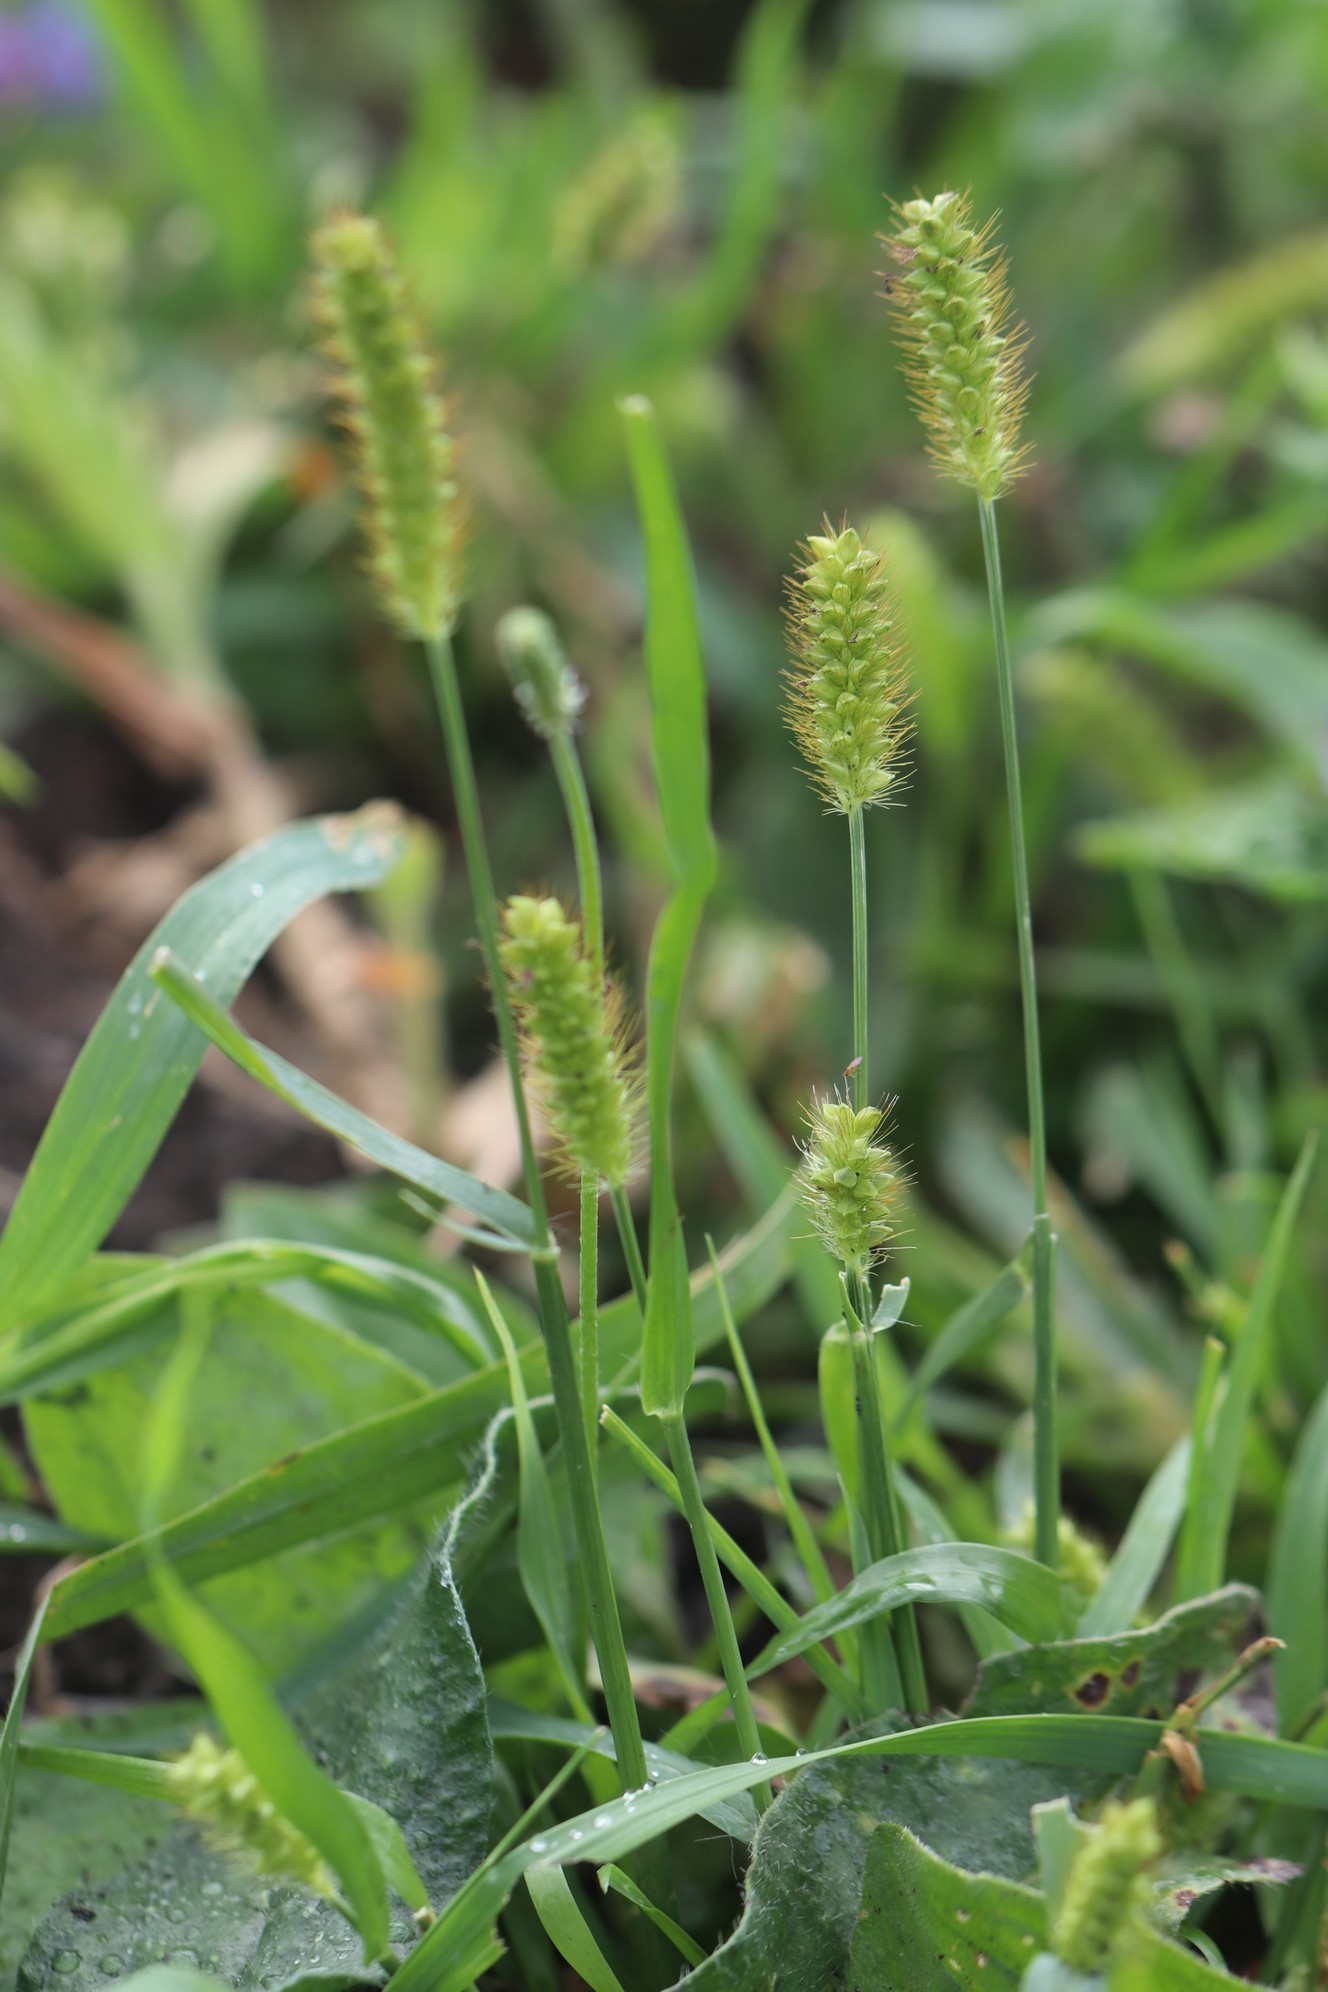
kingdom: Plantae
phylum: Tracheophyta
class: Liliopsida
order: Poales
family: Poaceae
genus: Setaria
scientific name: Setaria pumila
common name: Yellow bristle-grass
